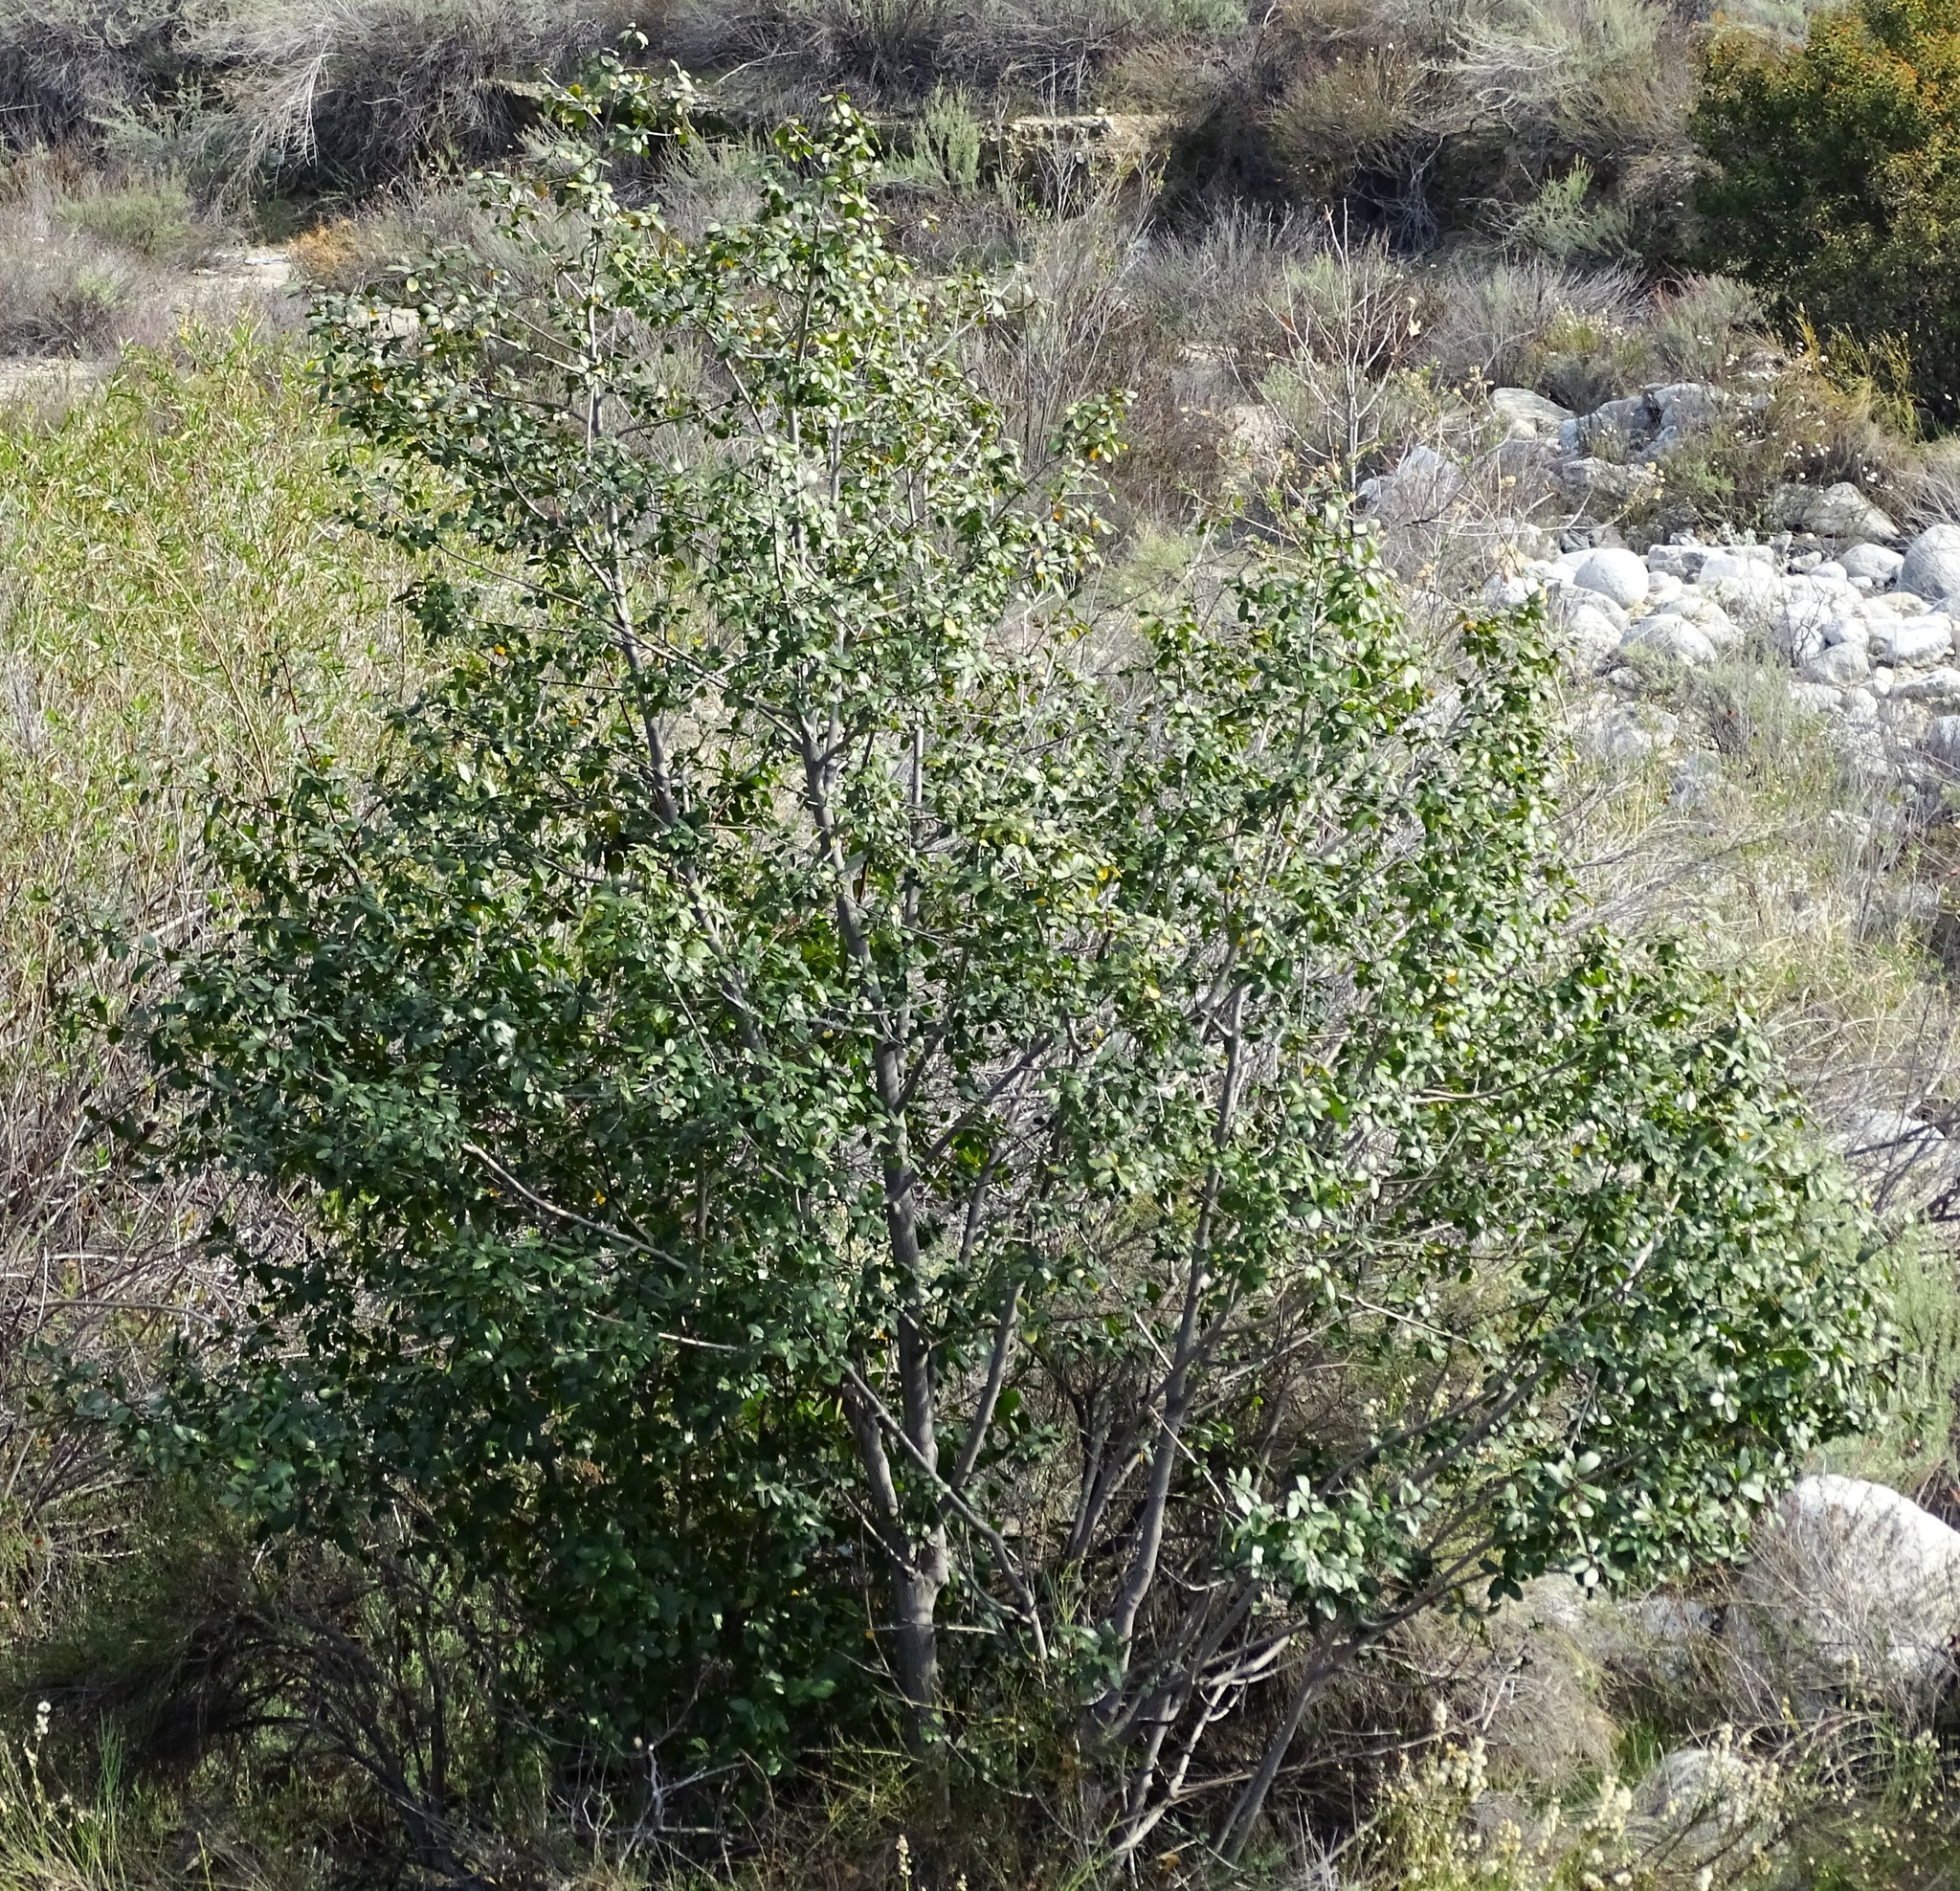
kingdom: Plantae
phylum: Tracheophyta
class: Magnoliopsida
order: Rosales
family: Rhamnaceae
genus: Frangula
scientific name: Frangula californica
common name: California buckthorn
